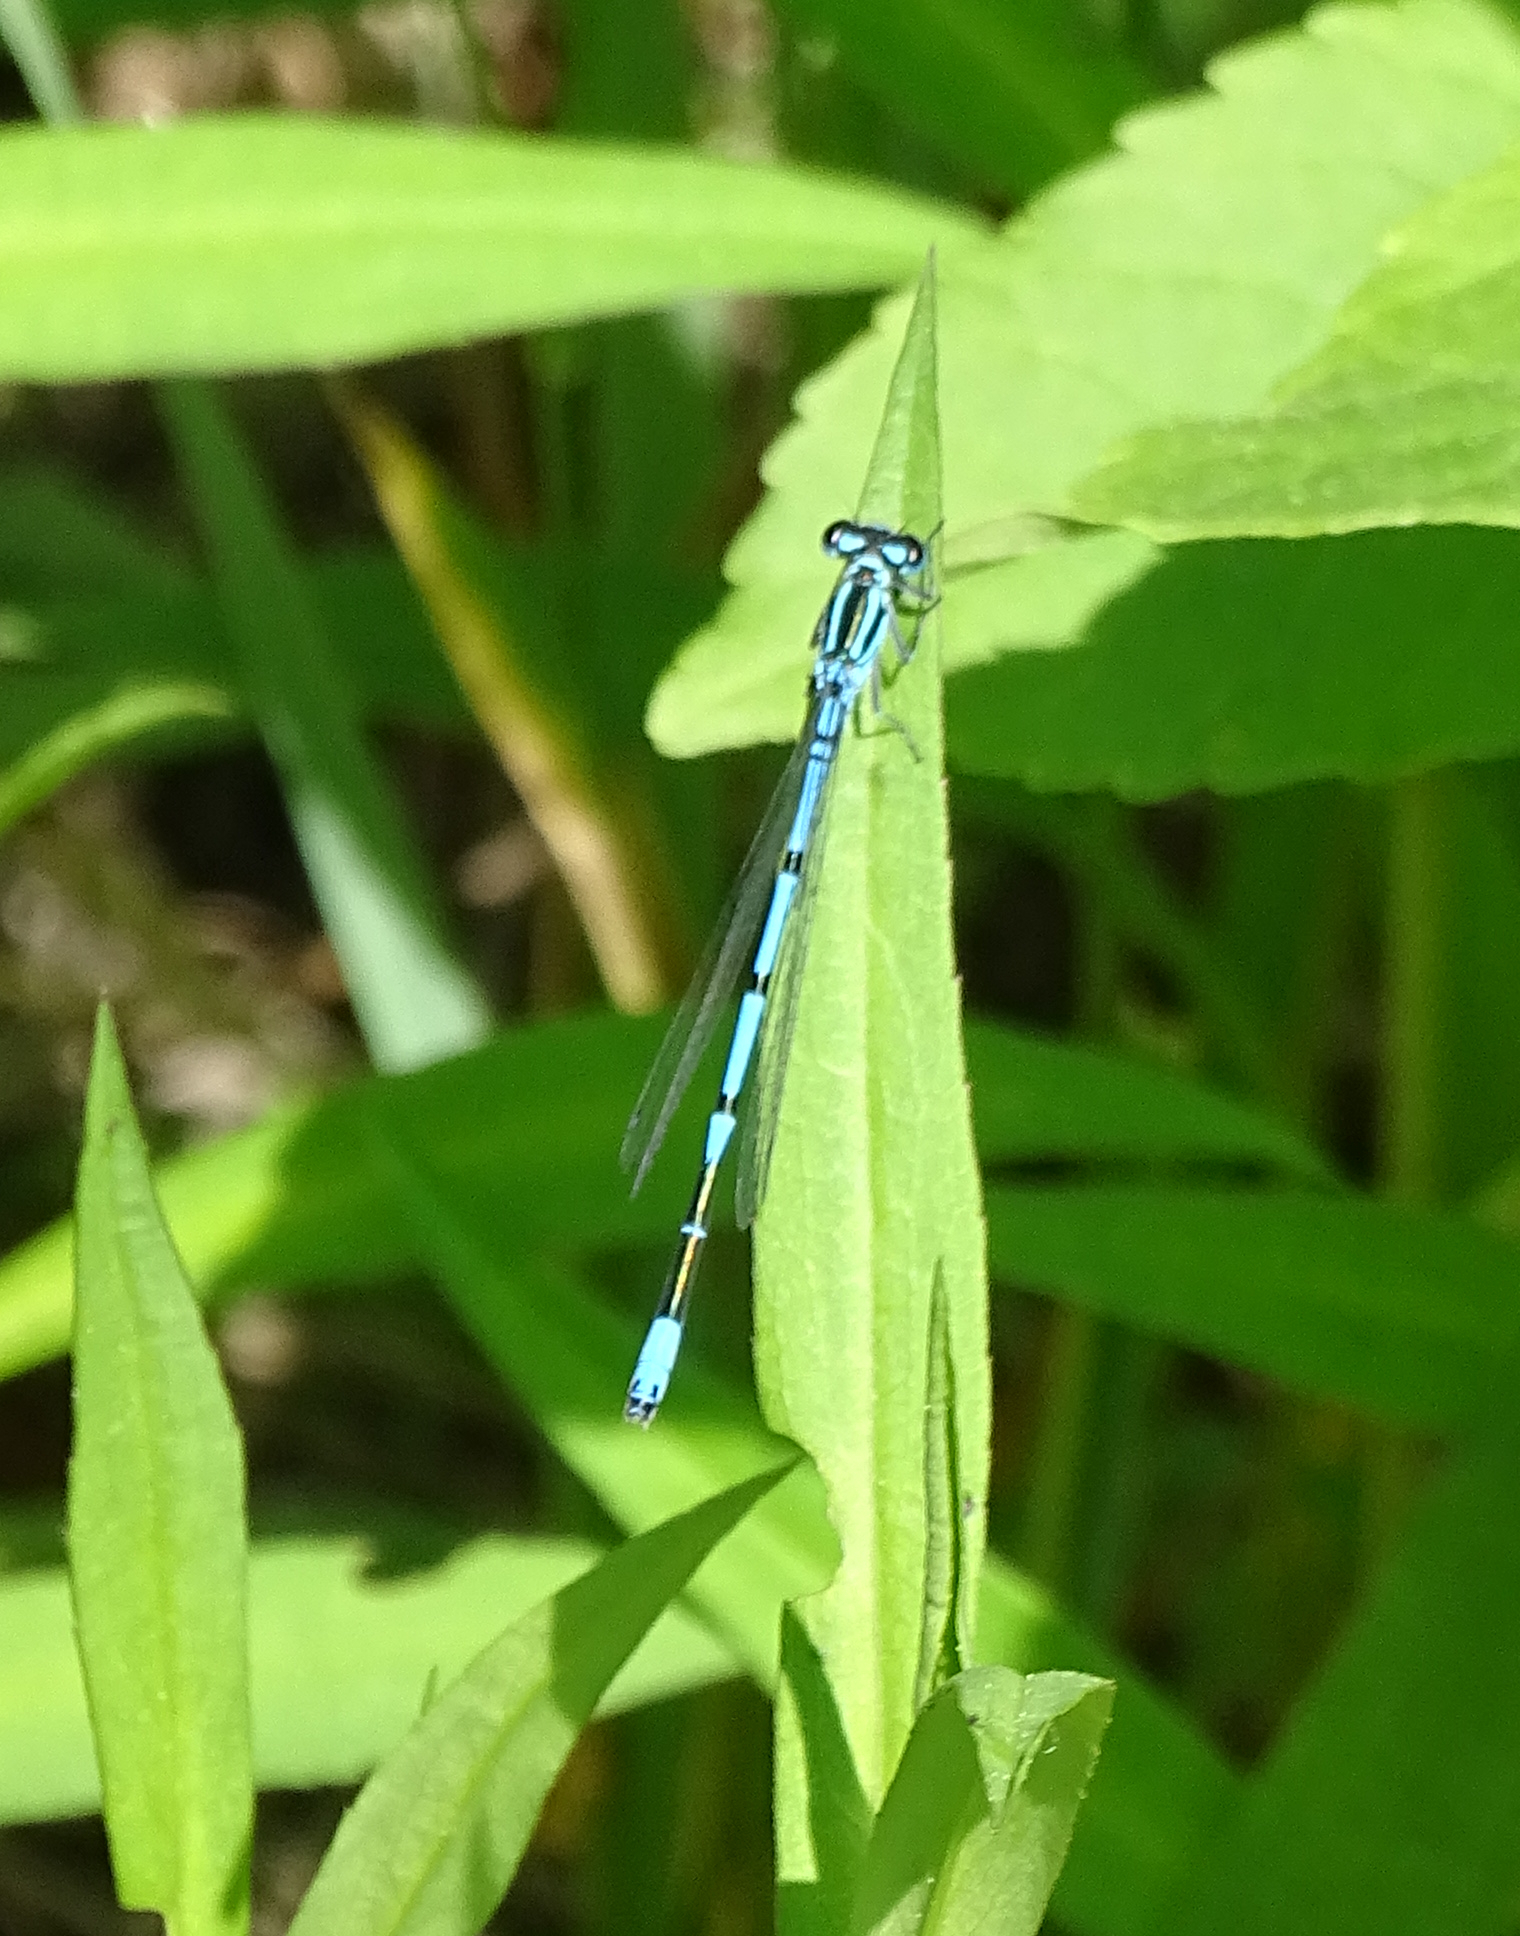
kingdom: Animalia
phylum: Arthropoda
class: Insecta
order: Odonata
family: Coenagrionidae
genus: Coenagrion
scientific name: Coenagrion puella
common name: Azure damselfly
